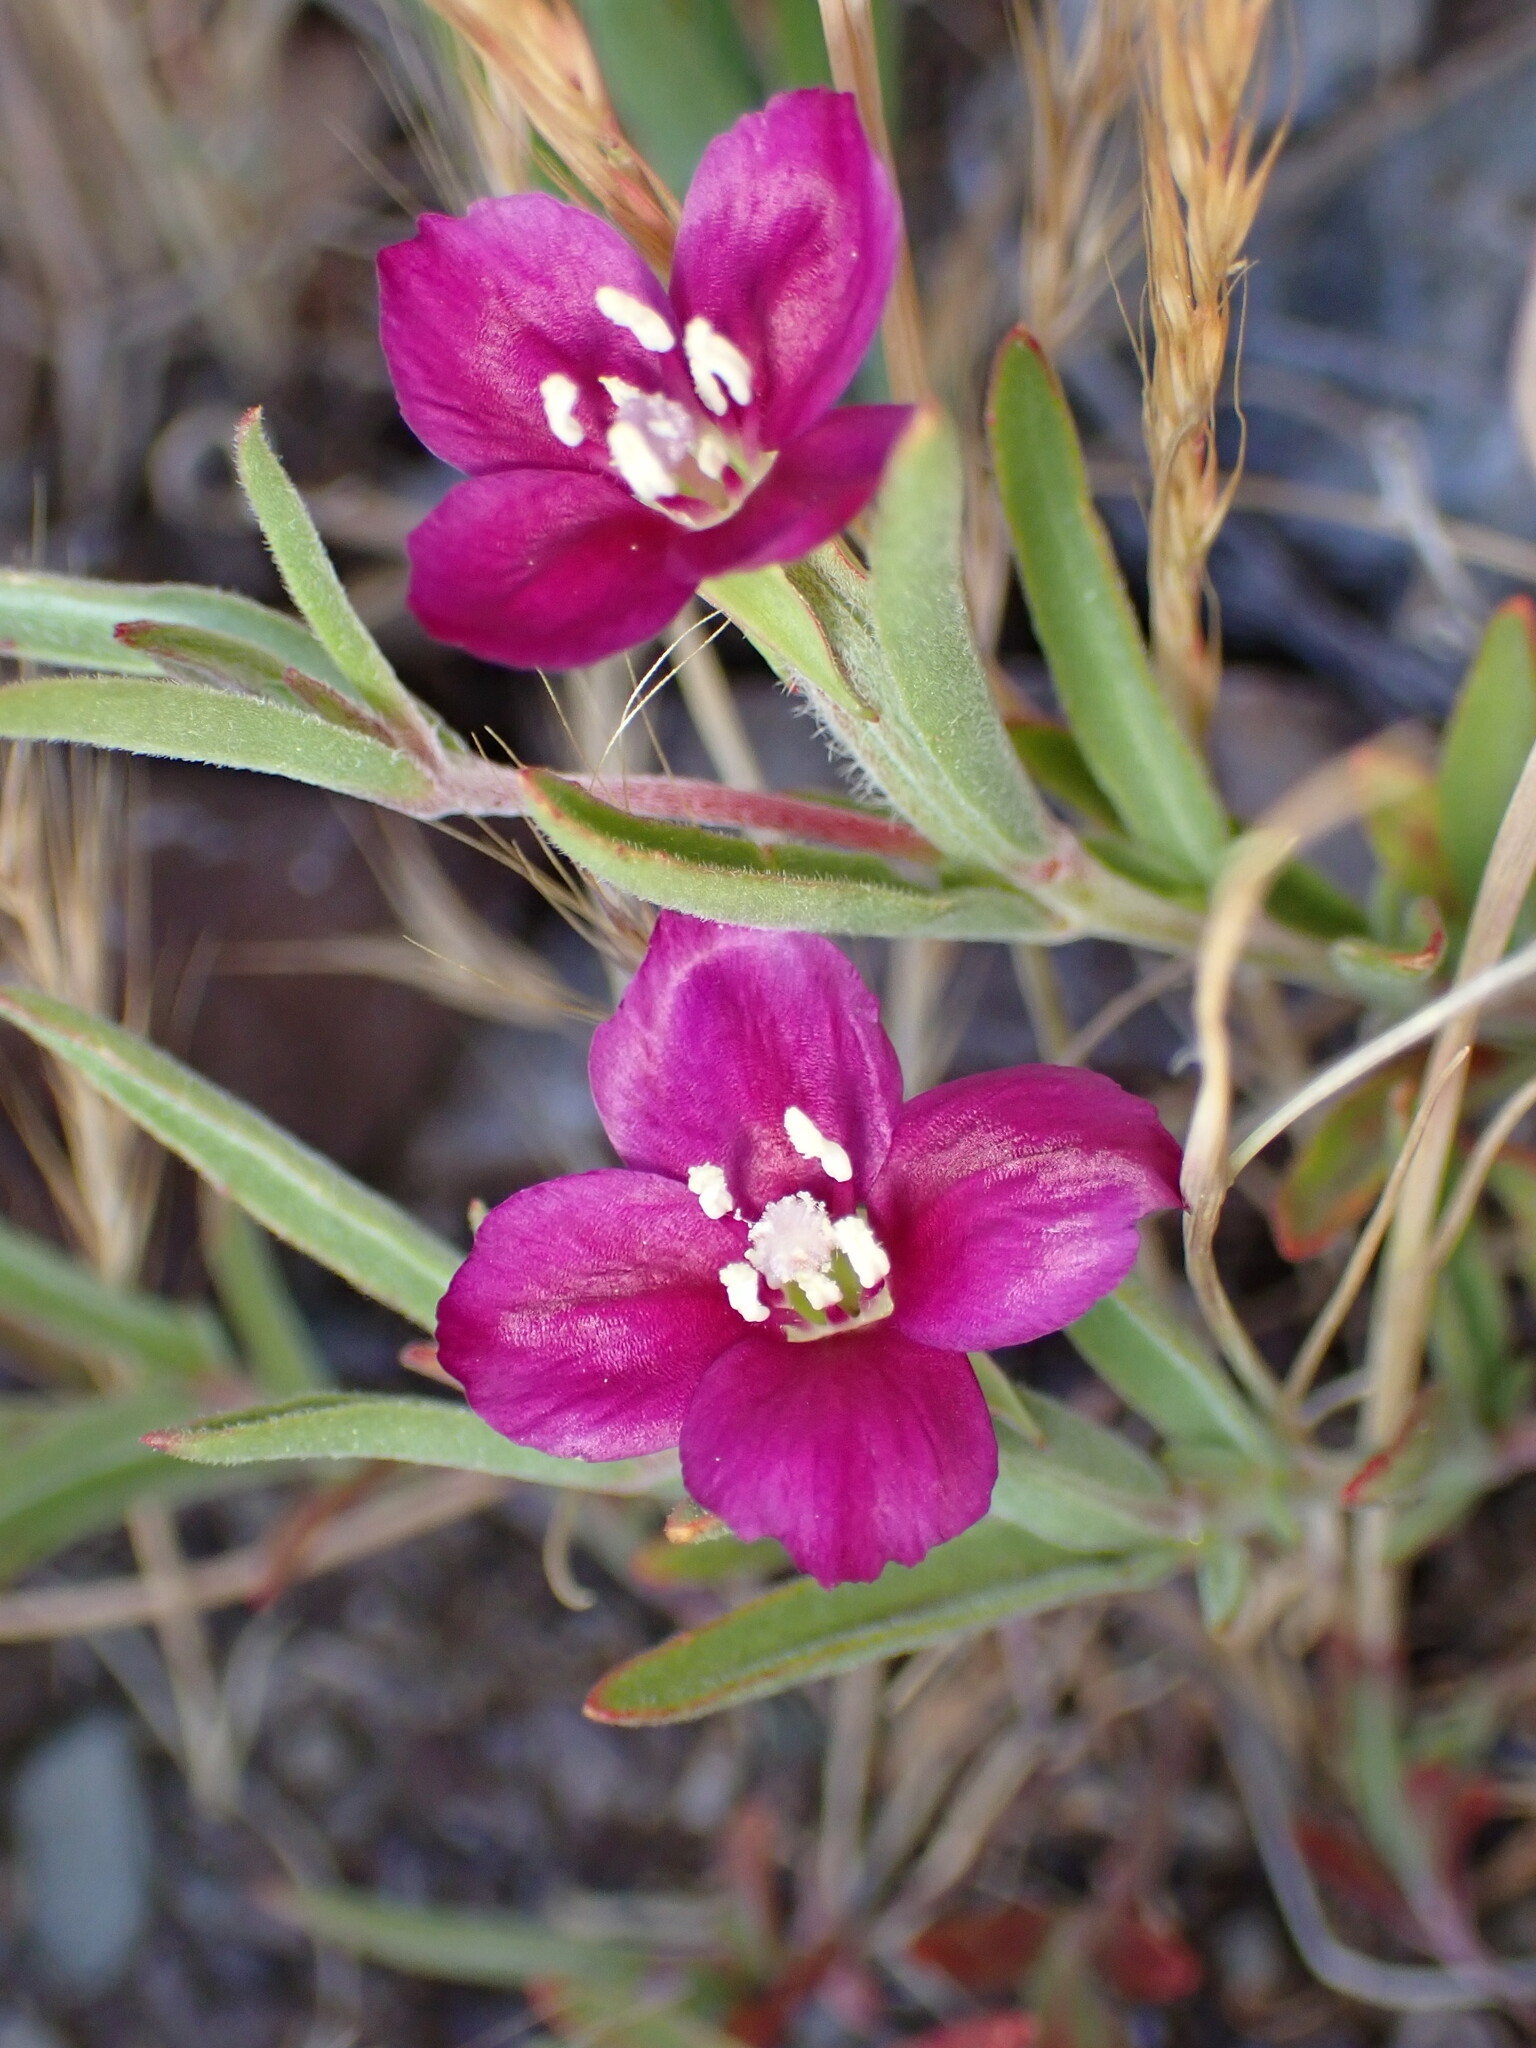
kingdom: Plantae
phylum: Tracheophyta
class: Magnoliopsida
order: Myrtales
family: Onagraceae
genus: Clarkia
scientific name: Clarkia purpurea
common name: Purple clarkia
